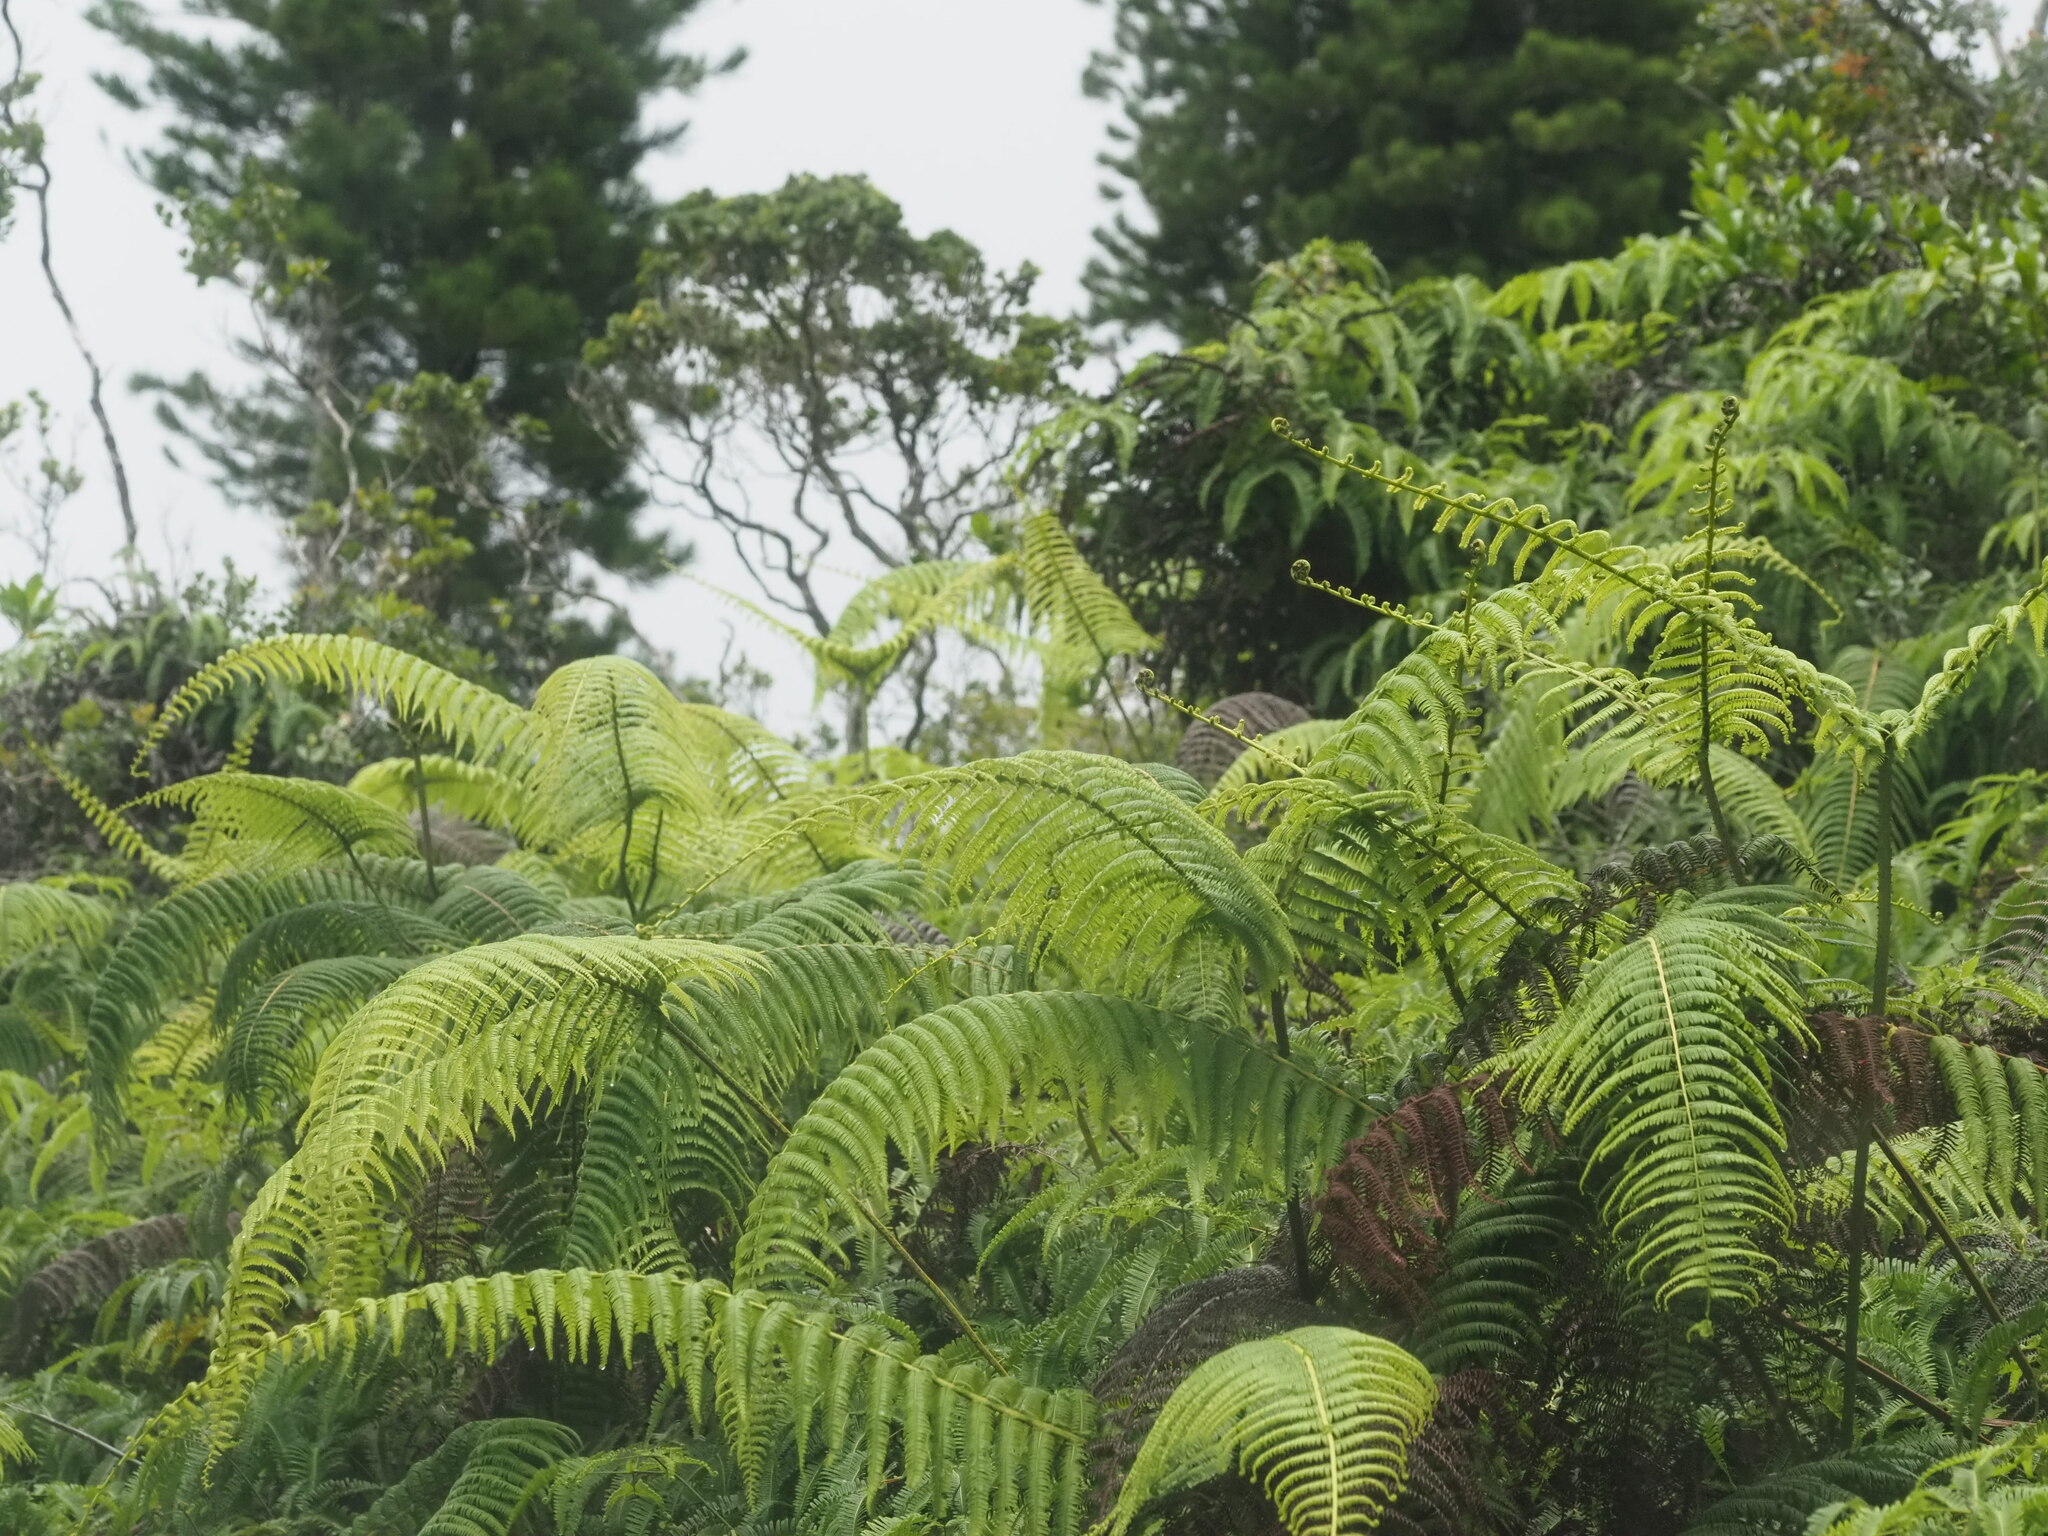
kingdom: Plantae
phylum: Tracheophyta
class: Polypodiopsida
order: Gleicheniales
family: Gleicheniaceae
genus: Diplopterygium
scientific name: Diplopterygium pinnatum
